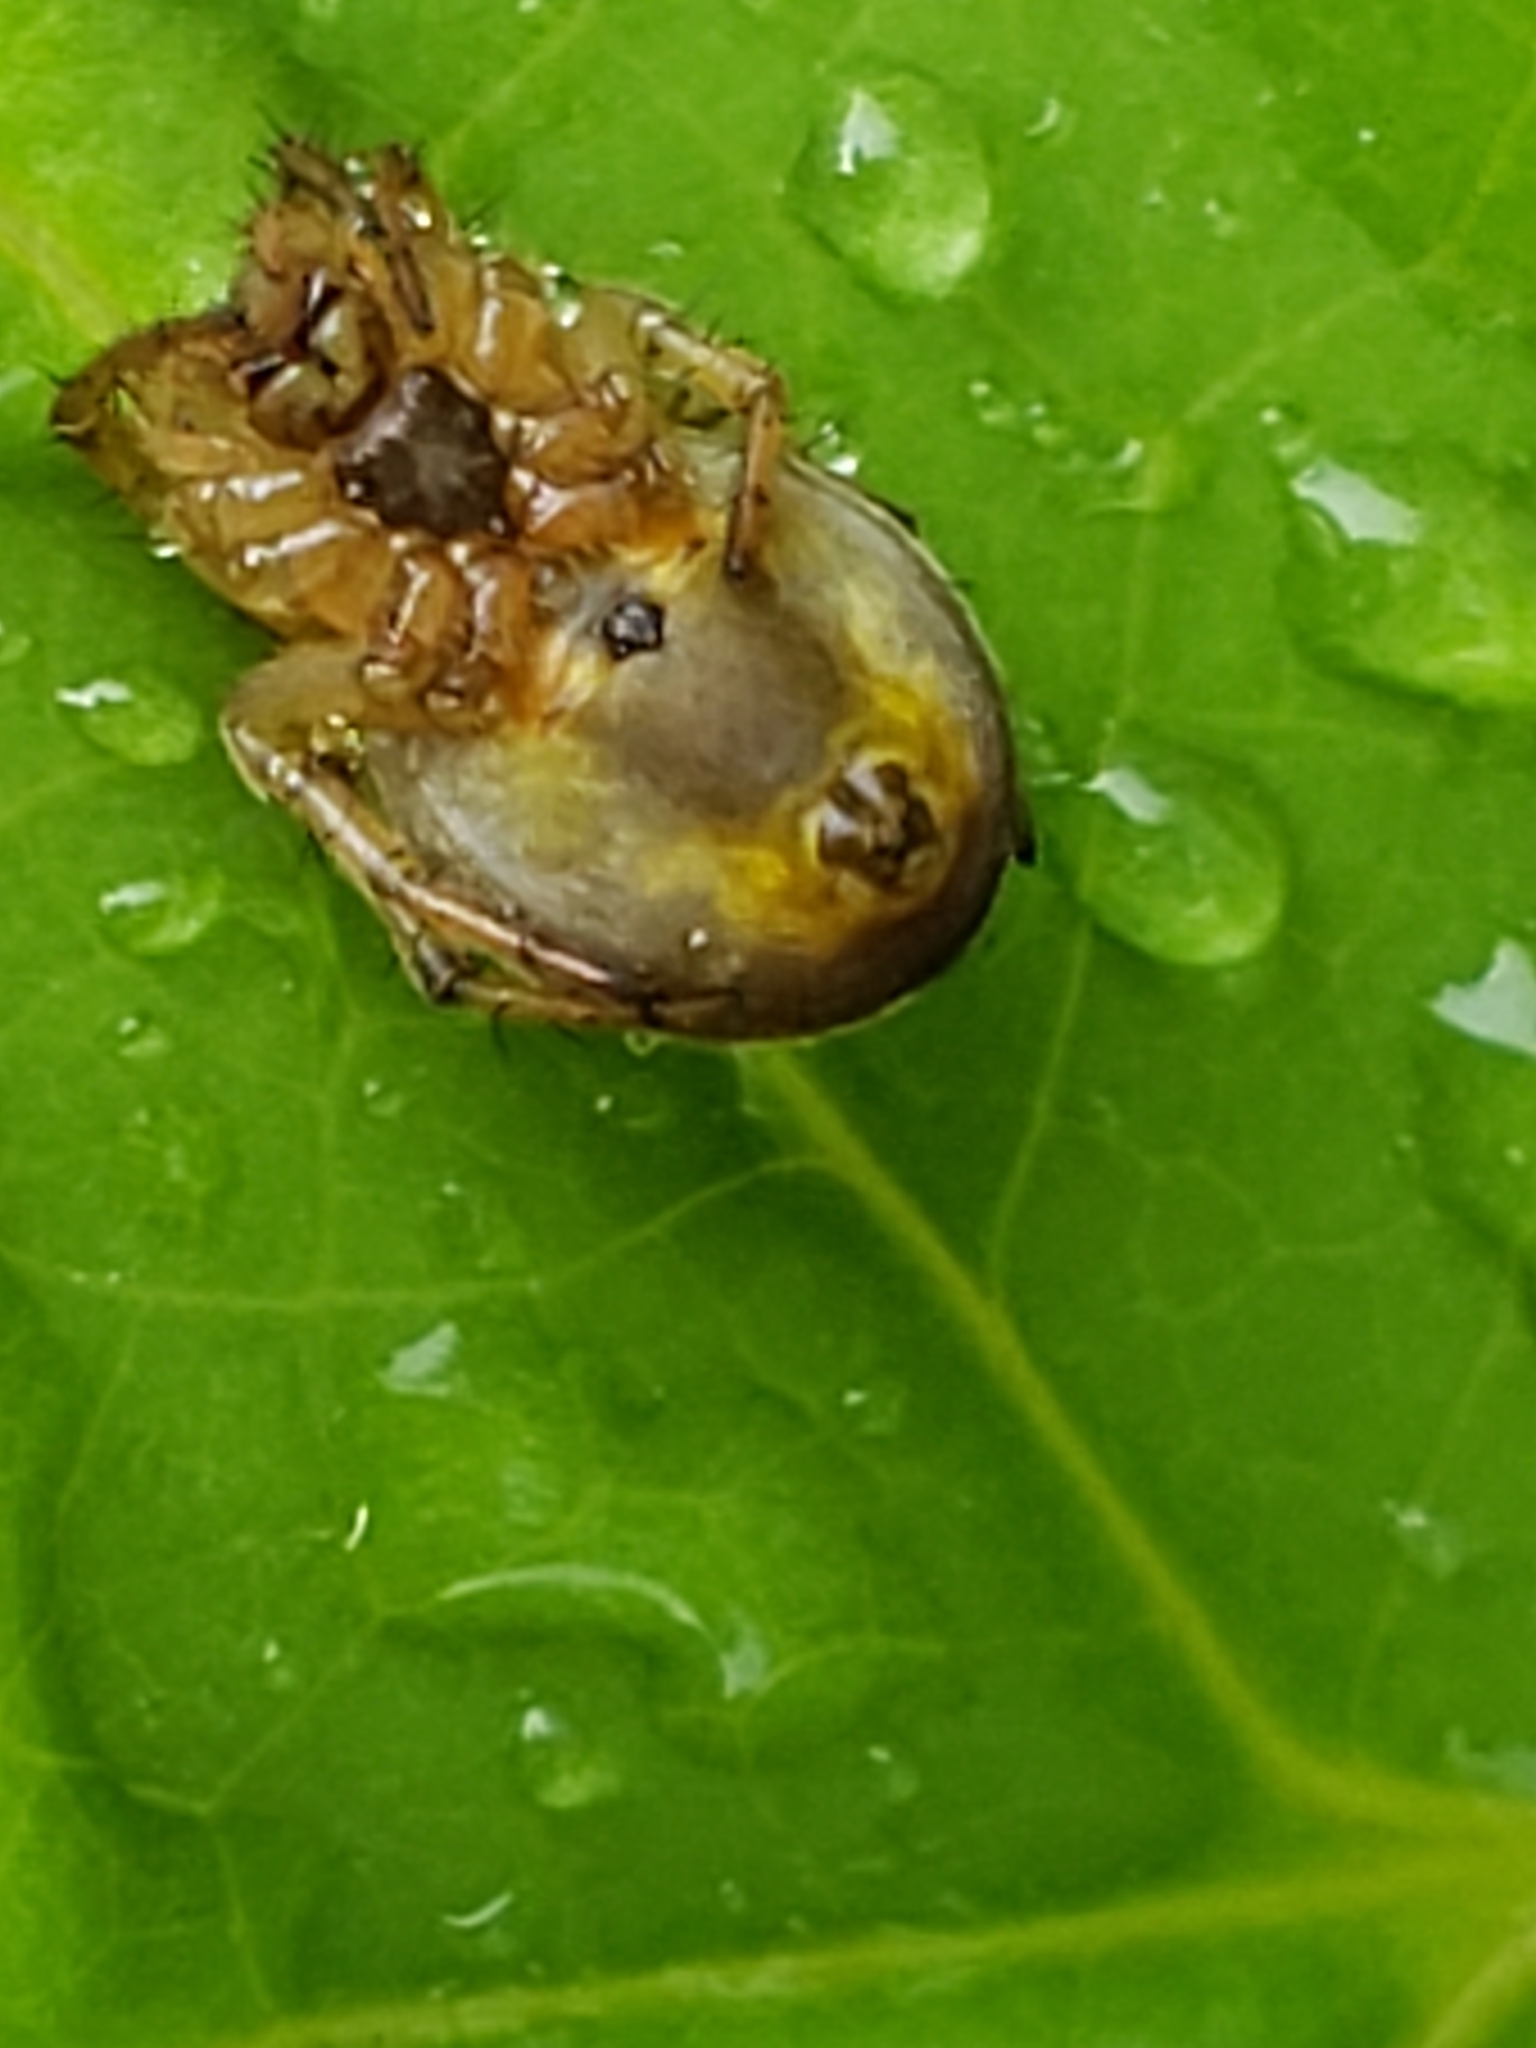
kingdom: Animalia
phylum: Arthropoda
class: Arachnida
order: Araneae
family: Araneidae
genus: Araniella
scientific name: Araniella displicata
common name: Sixspotted orb weaver
